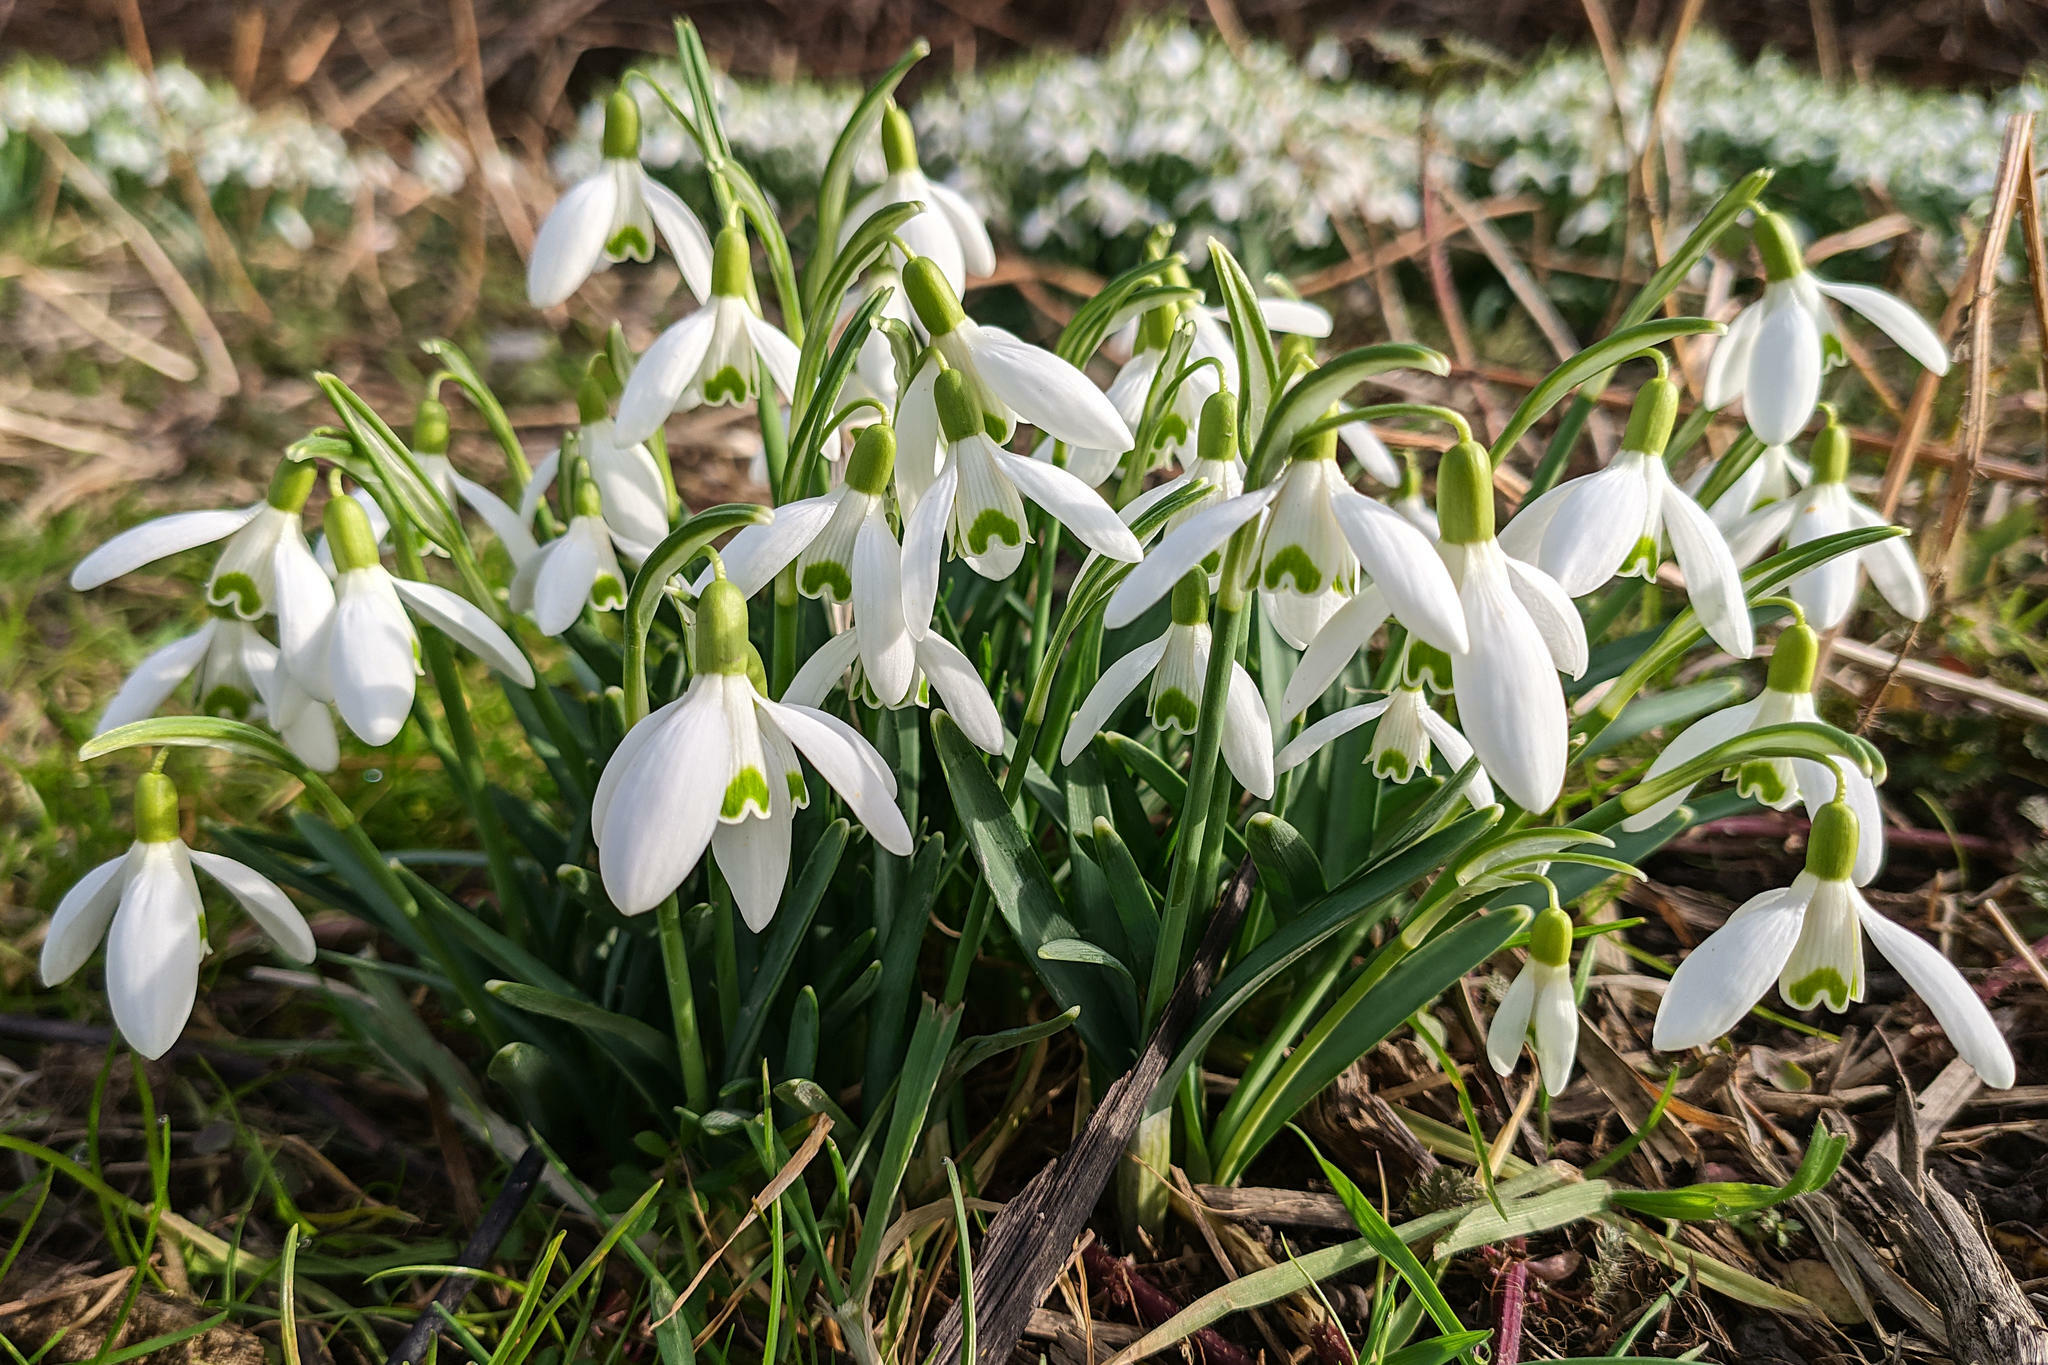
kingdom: Plantae
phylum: Tracheophyta
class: Liliopsida
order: Asparagales
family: Amaryllidaceae
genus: Galanthus
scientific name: Galanthus nivalis
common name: Snowdrop
